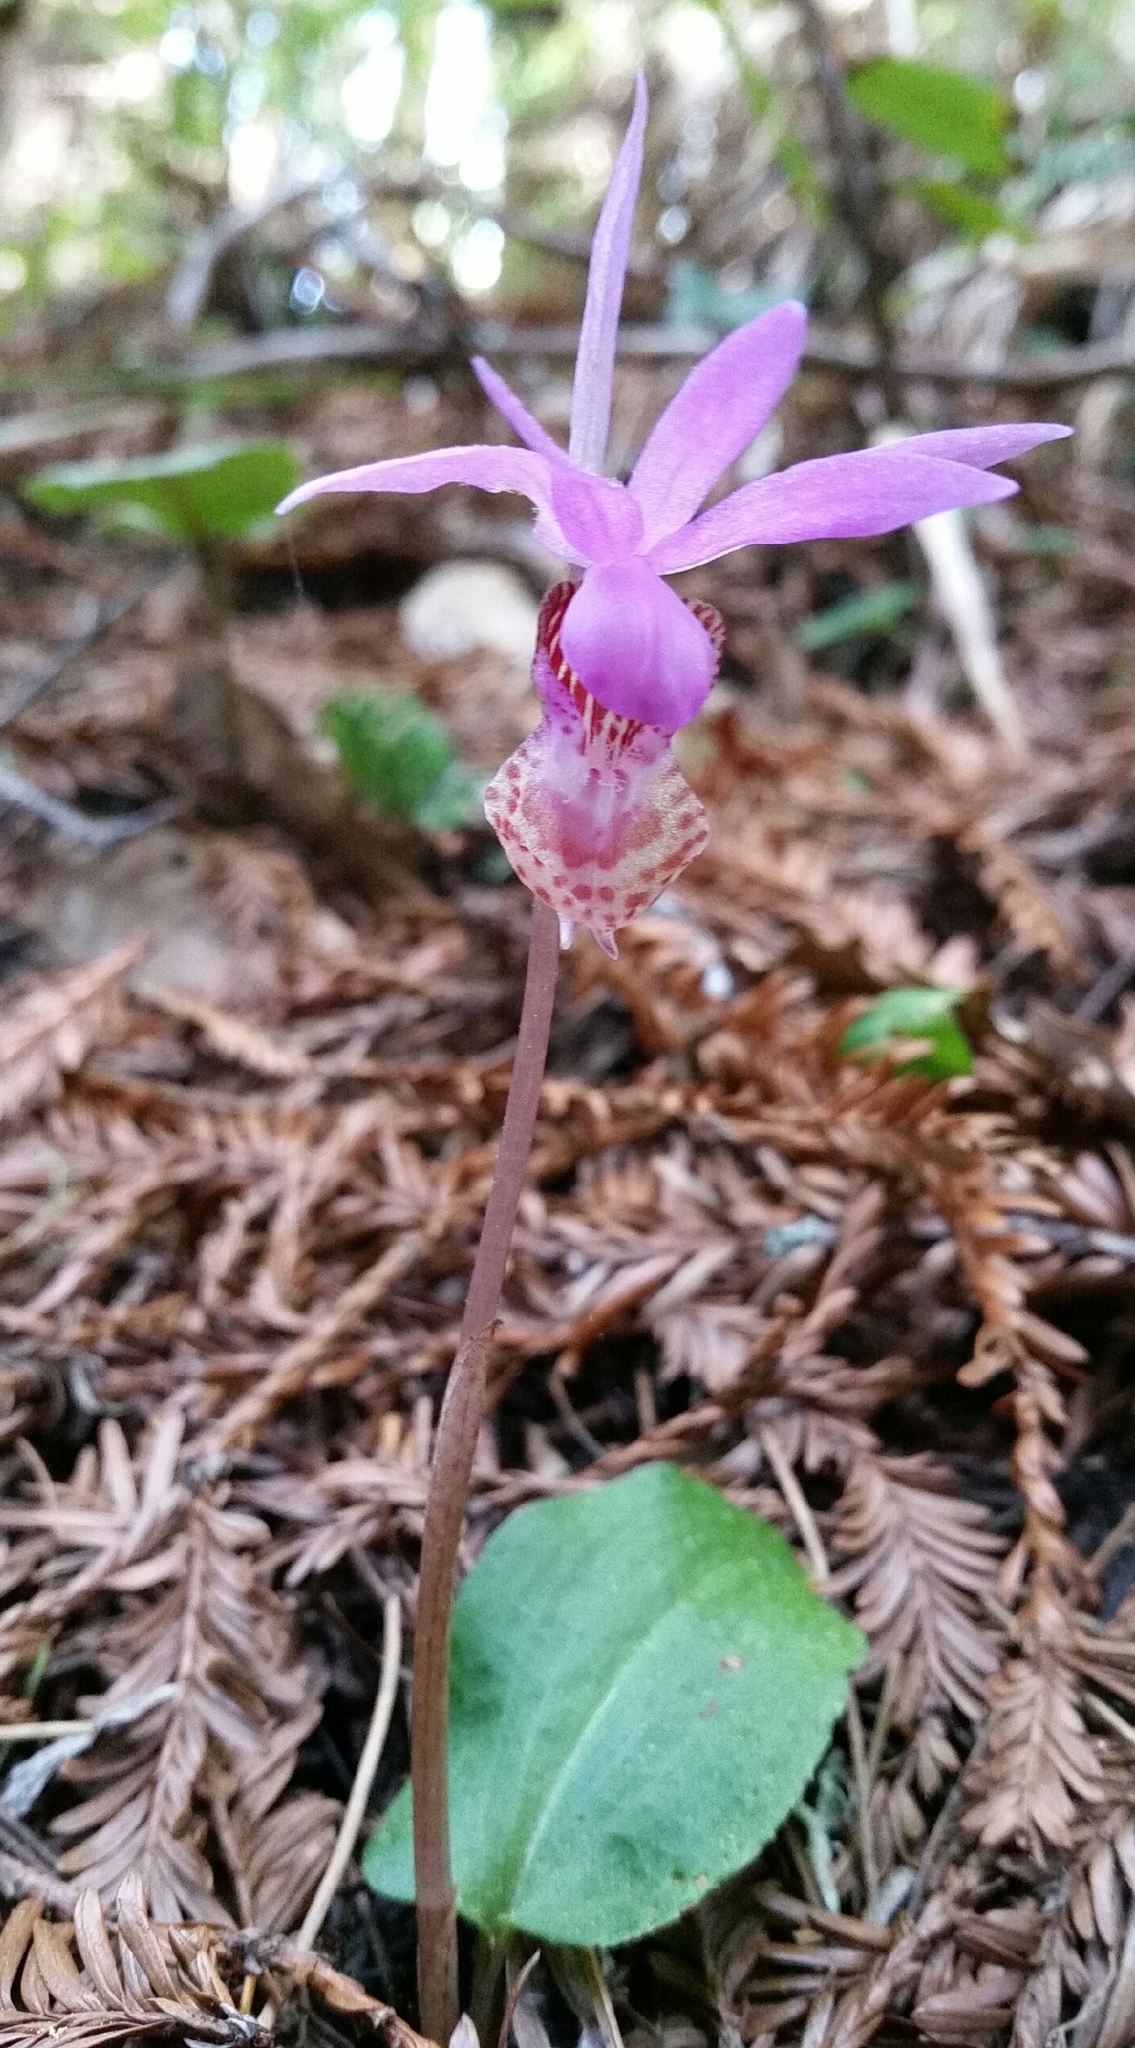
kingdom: Plantae
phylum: Tracheophyta
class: Liliopsida
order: Asparagales
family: Orchidaceae
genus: Calypso
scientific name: Calypso bulbosa
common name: Calypso
